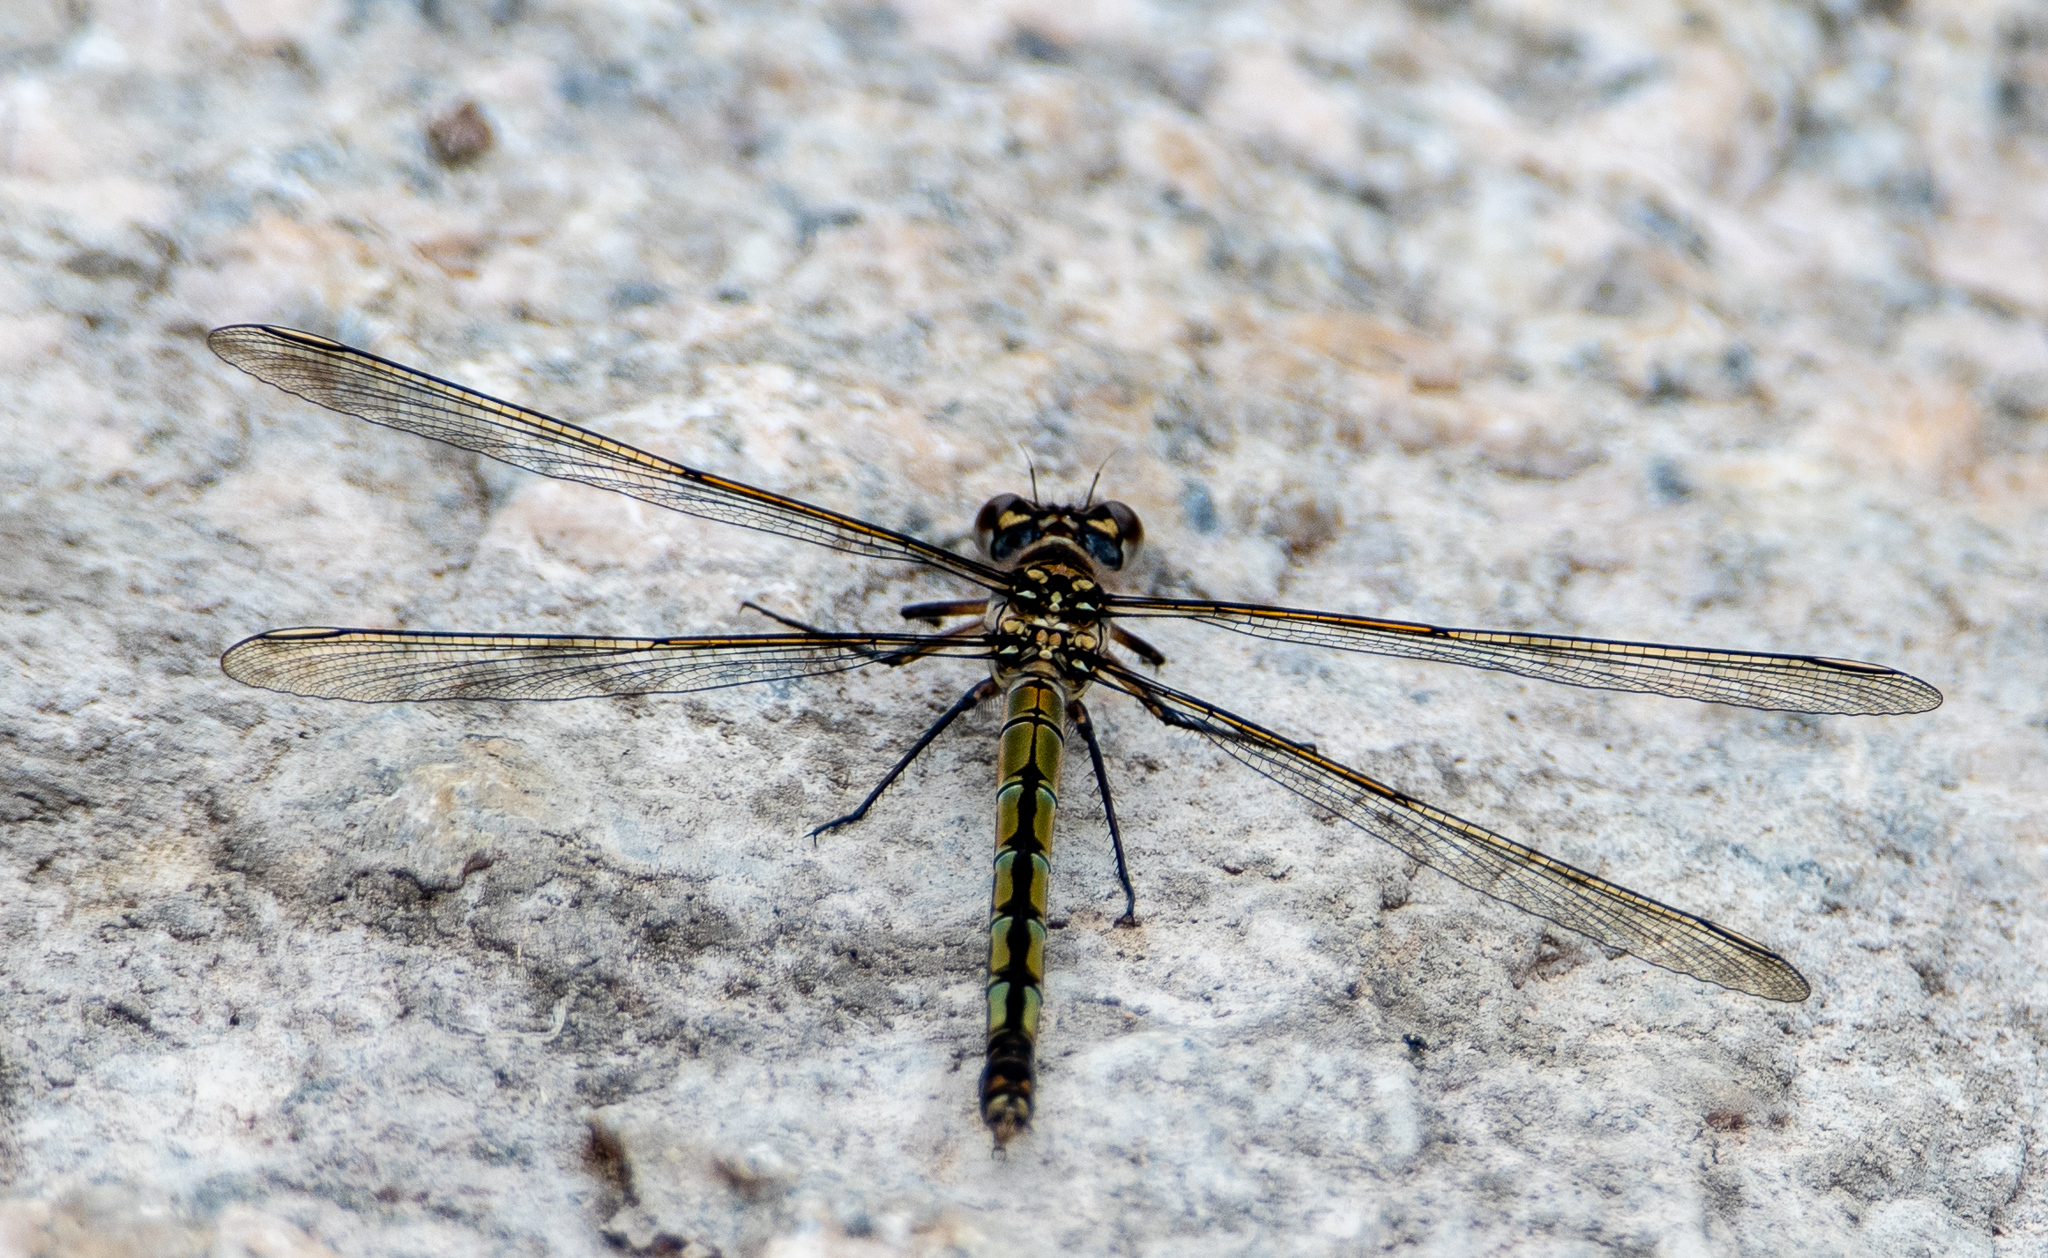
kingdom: Animalia
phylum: Arthropoda
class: Insecta
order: Odonata
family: Lestoideidae
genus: Diphlebia
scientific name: Diphlebia nymphoides
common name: Arrowhead rockmaster
